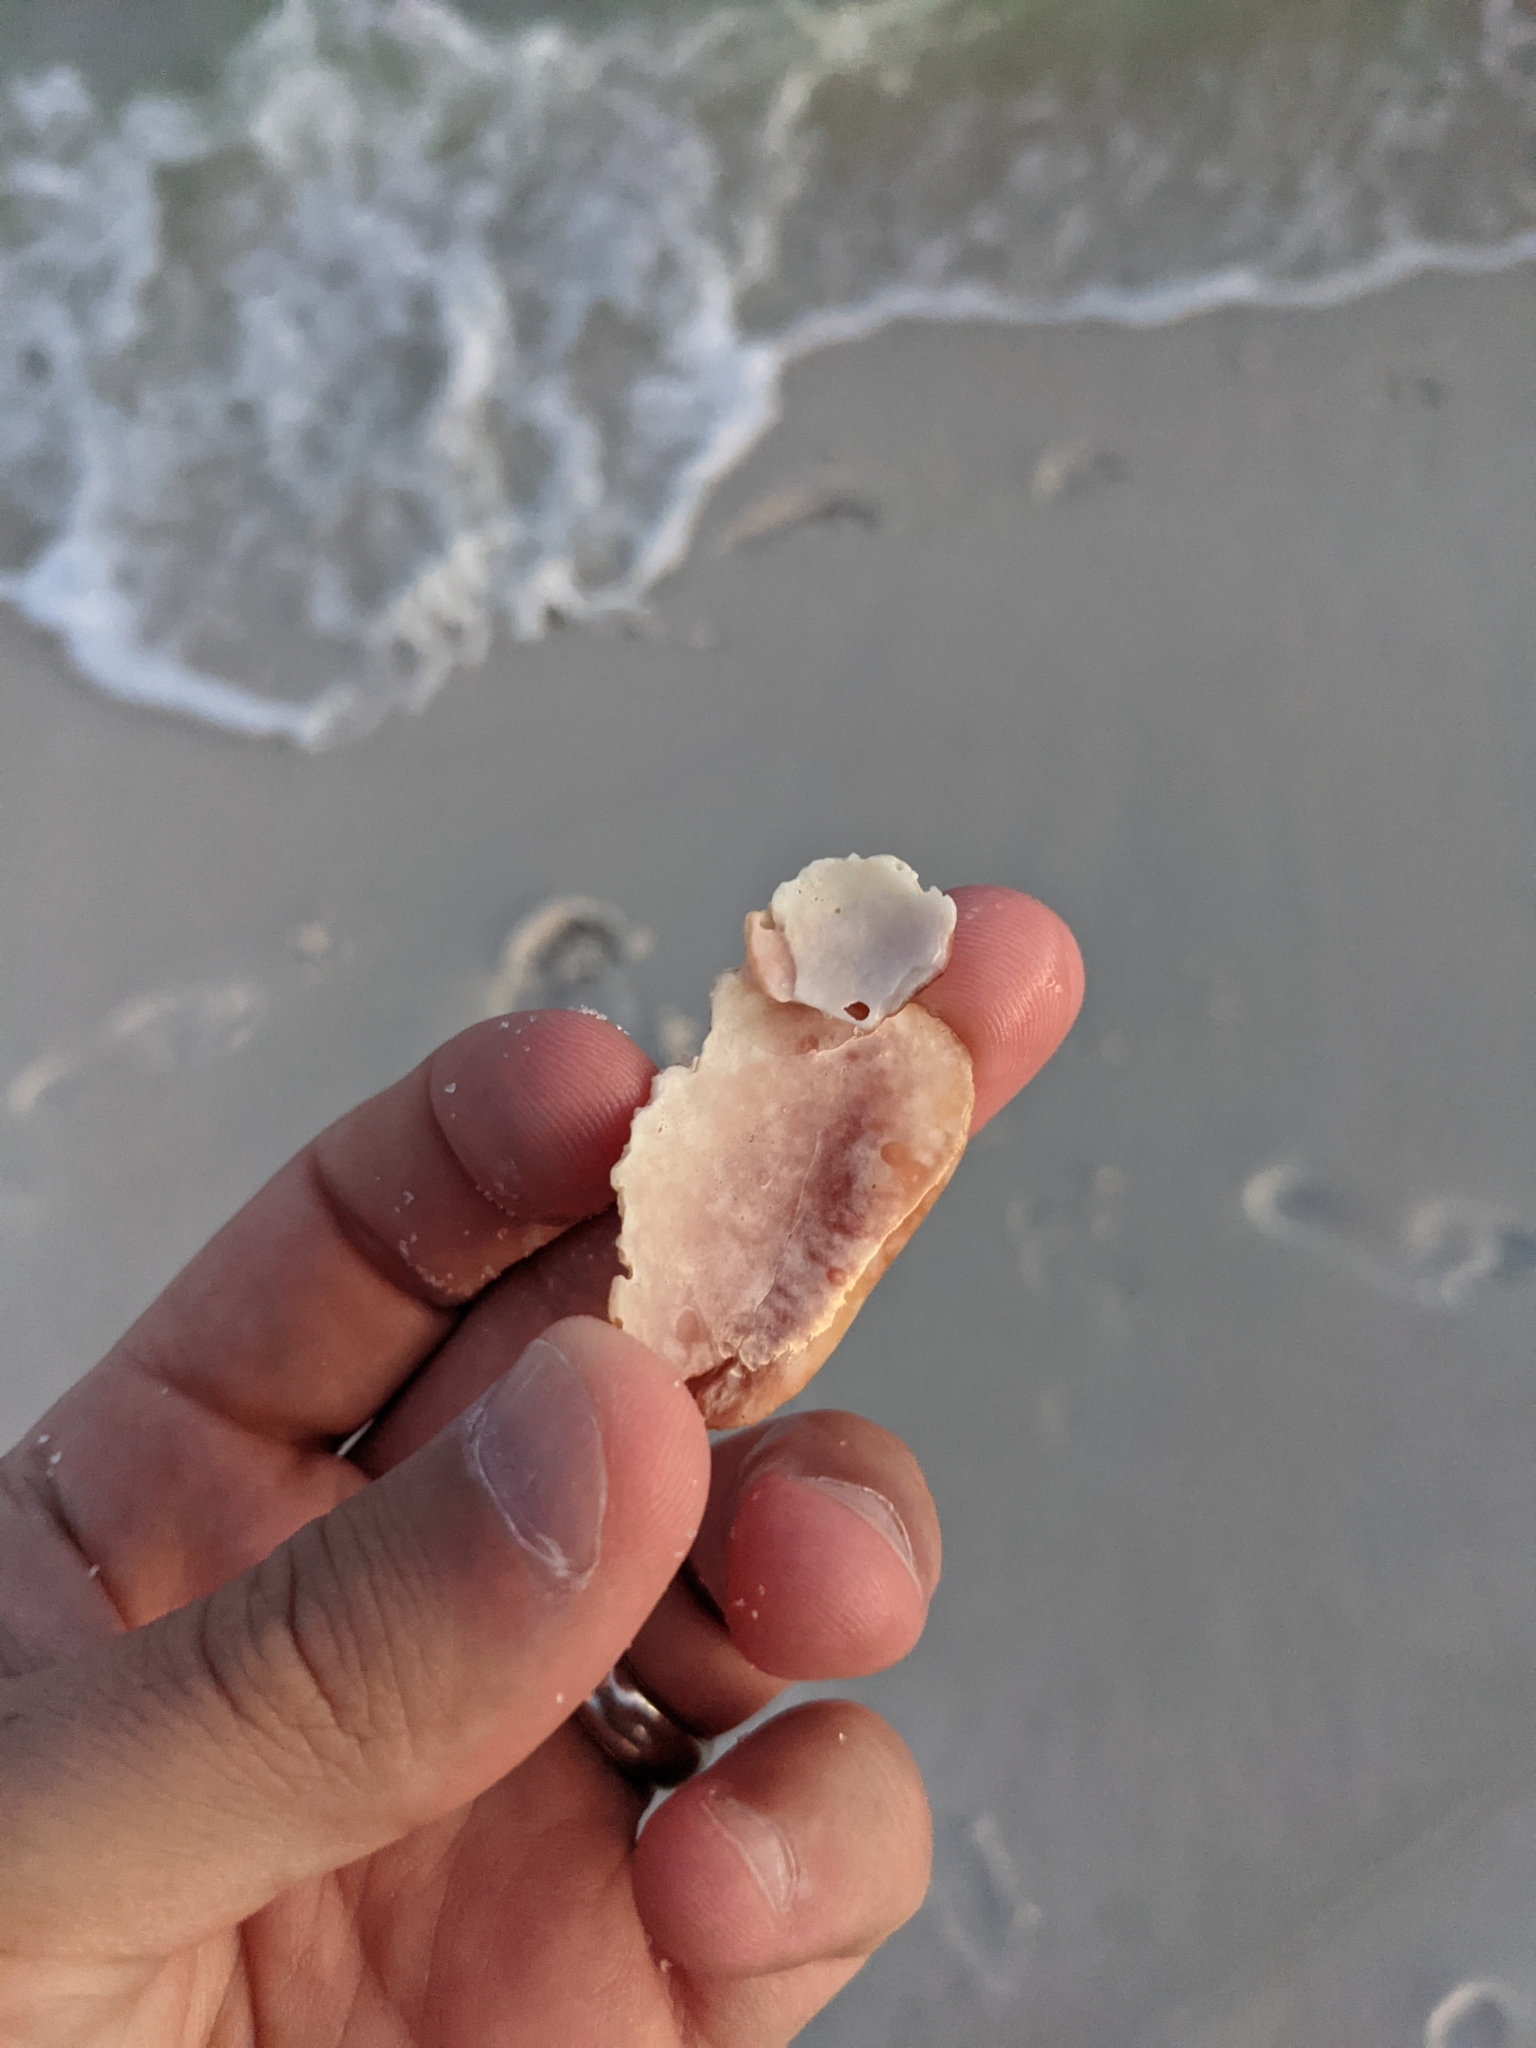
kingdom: Animalia
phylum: Mollusca
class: Gastropoda
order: Littorinimorpha
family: Strombidae
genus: Strombus
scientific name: Strombus alatus
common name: Florida fighting conch
